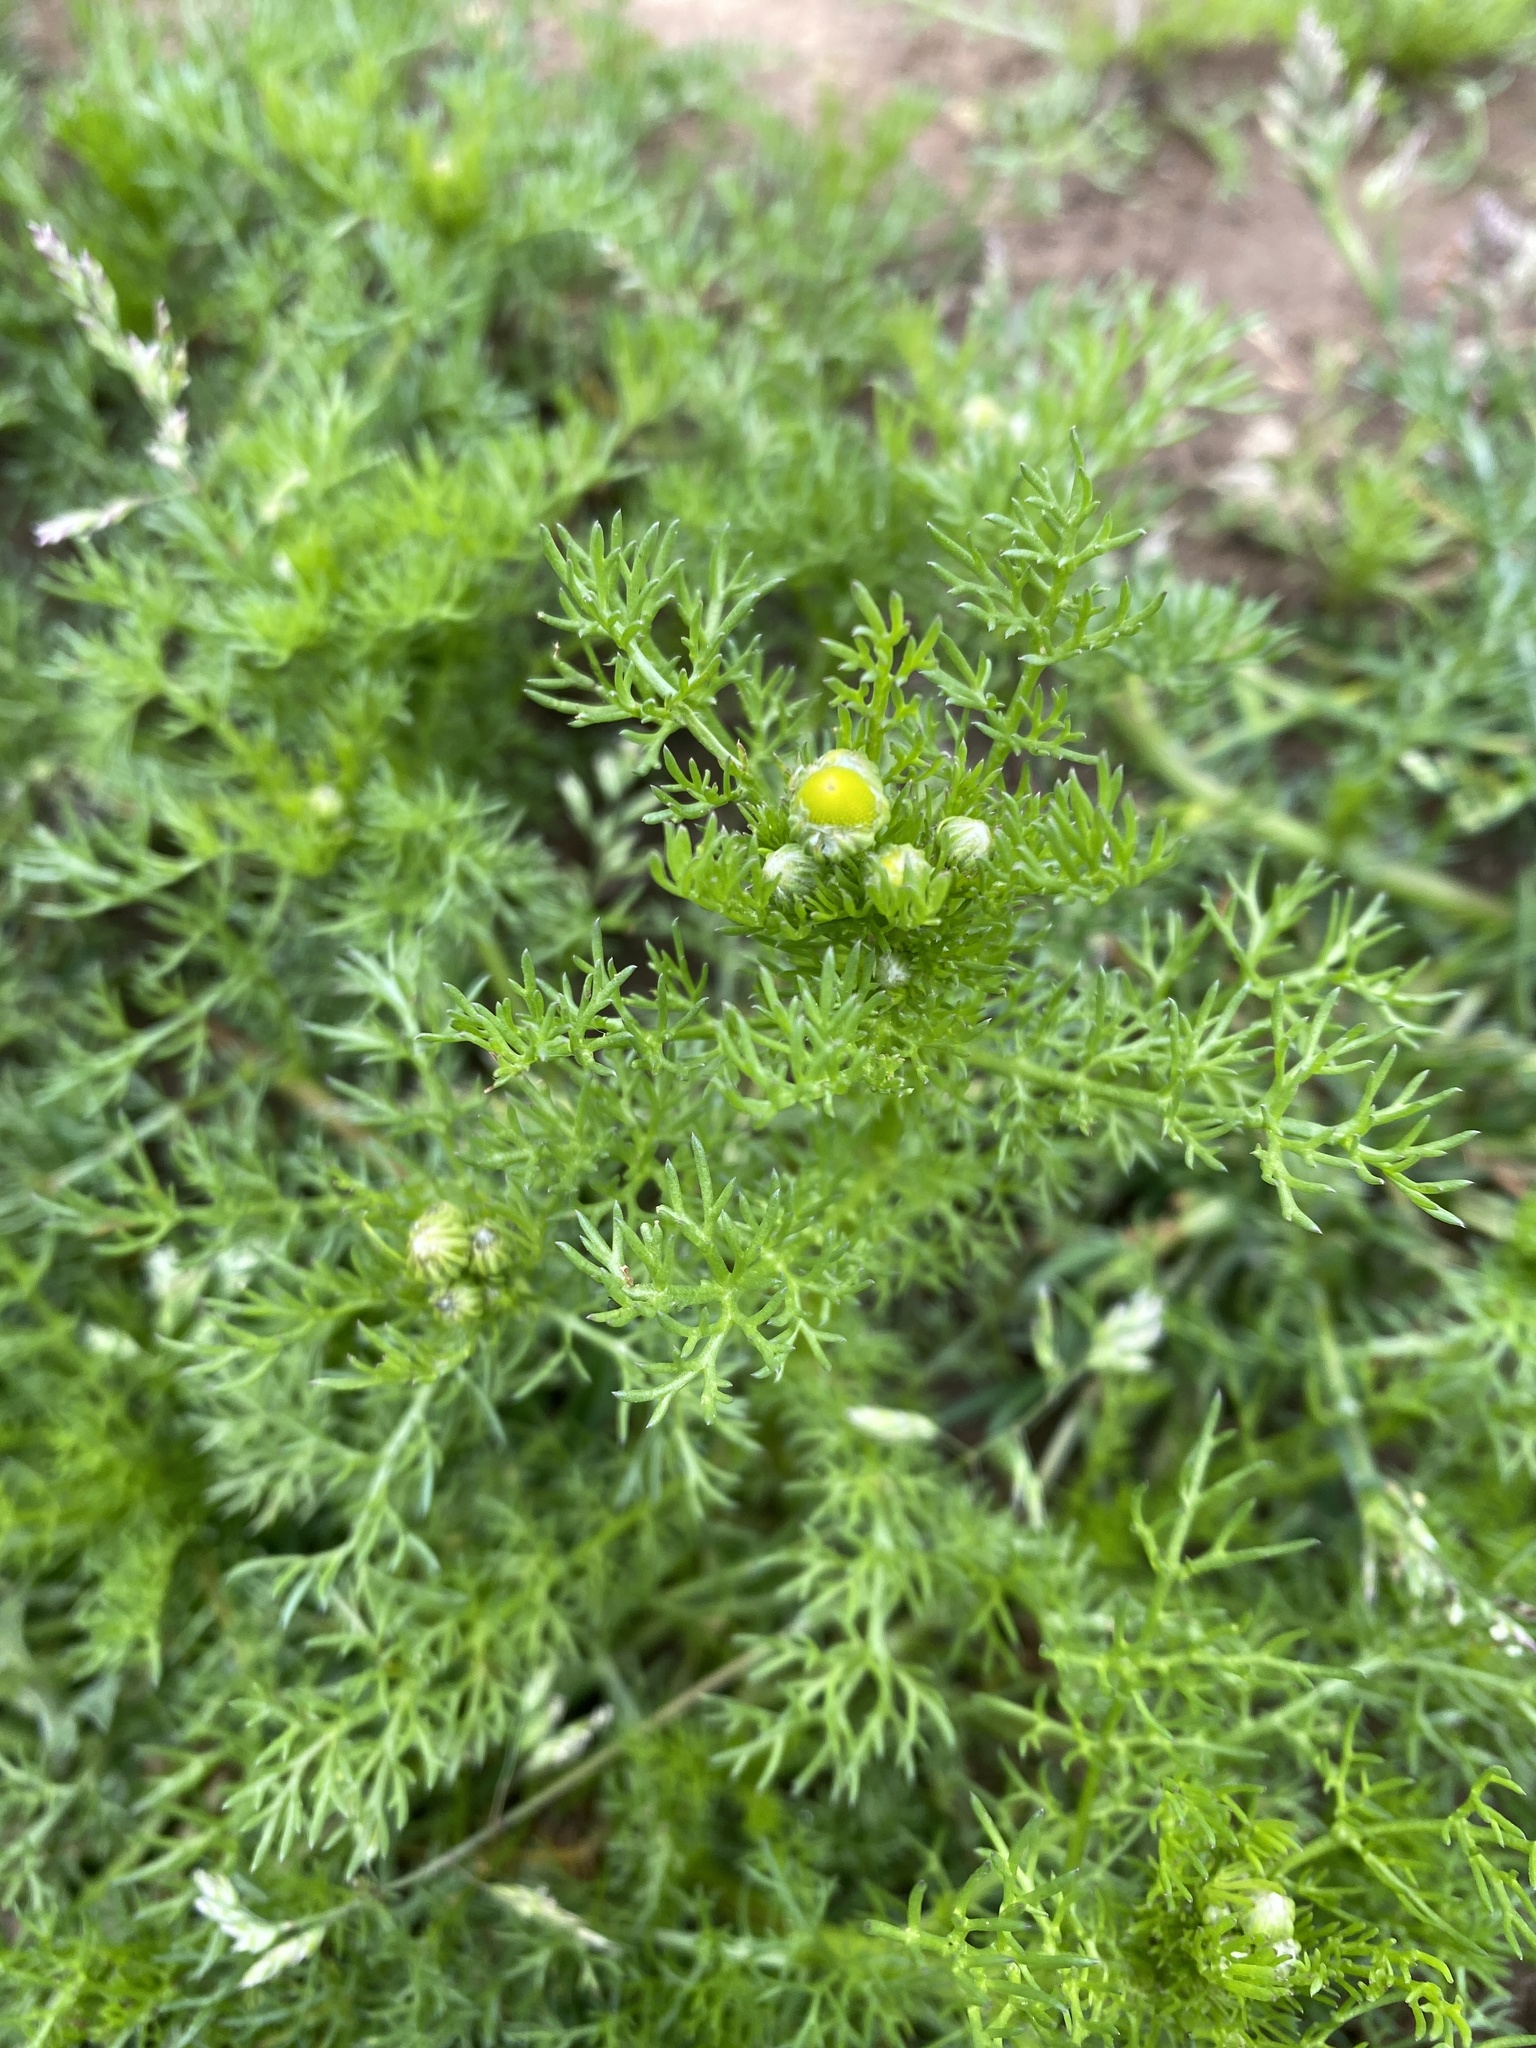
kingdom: Plantae
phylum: Tracheophyta
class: Magnoliopsida
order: Asterales
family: Asteraceae
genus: Matricaria
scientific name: Matricaria discoidea
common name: Disc mayweed
